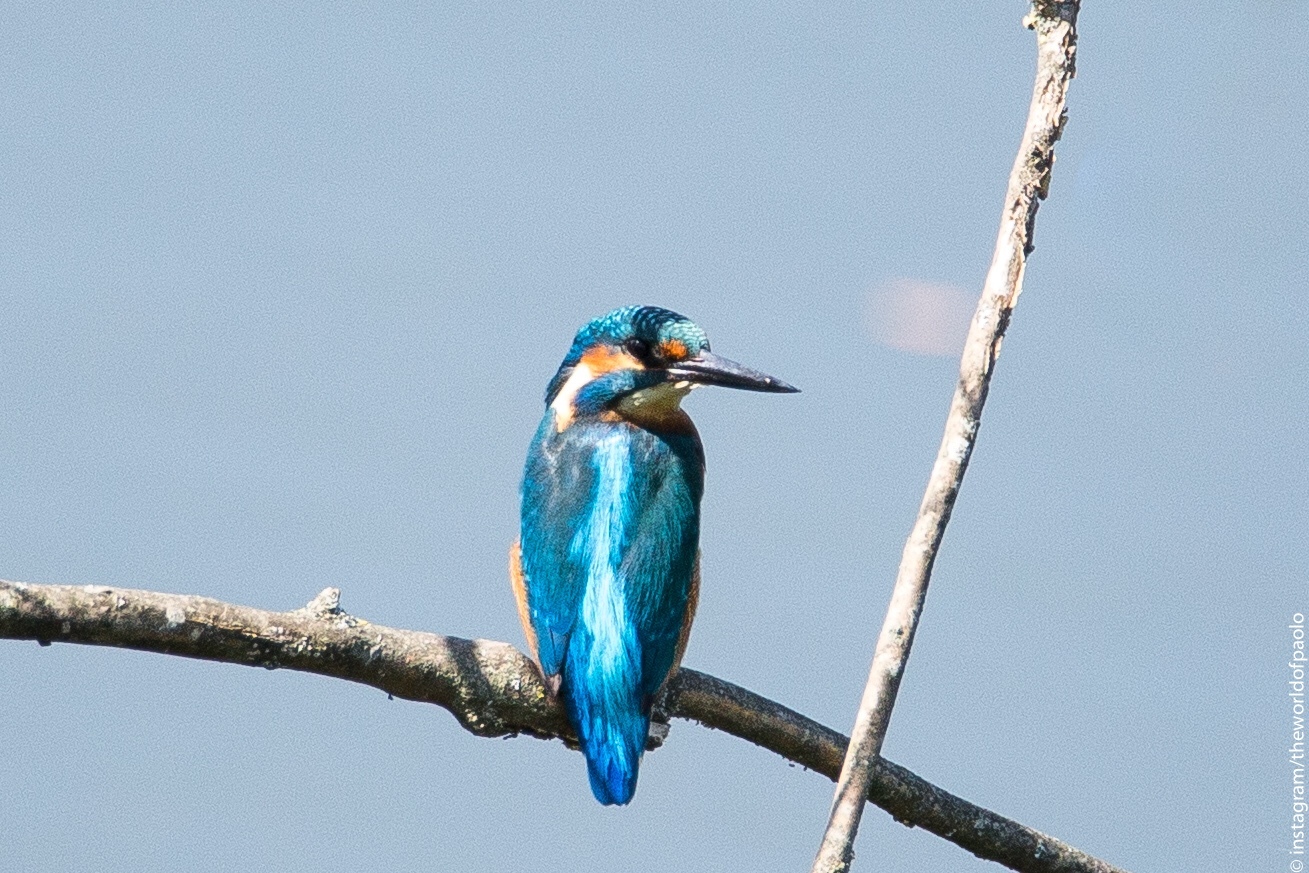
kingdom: Animalia
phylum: Chordata
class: Aves
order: Coraciiformes
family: Alcedinidae
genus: Alcedo
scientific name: Alcedo atthis
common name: Common kingfisher
